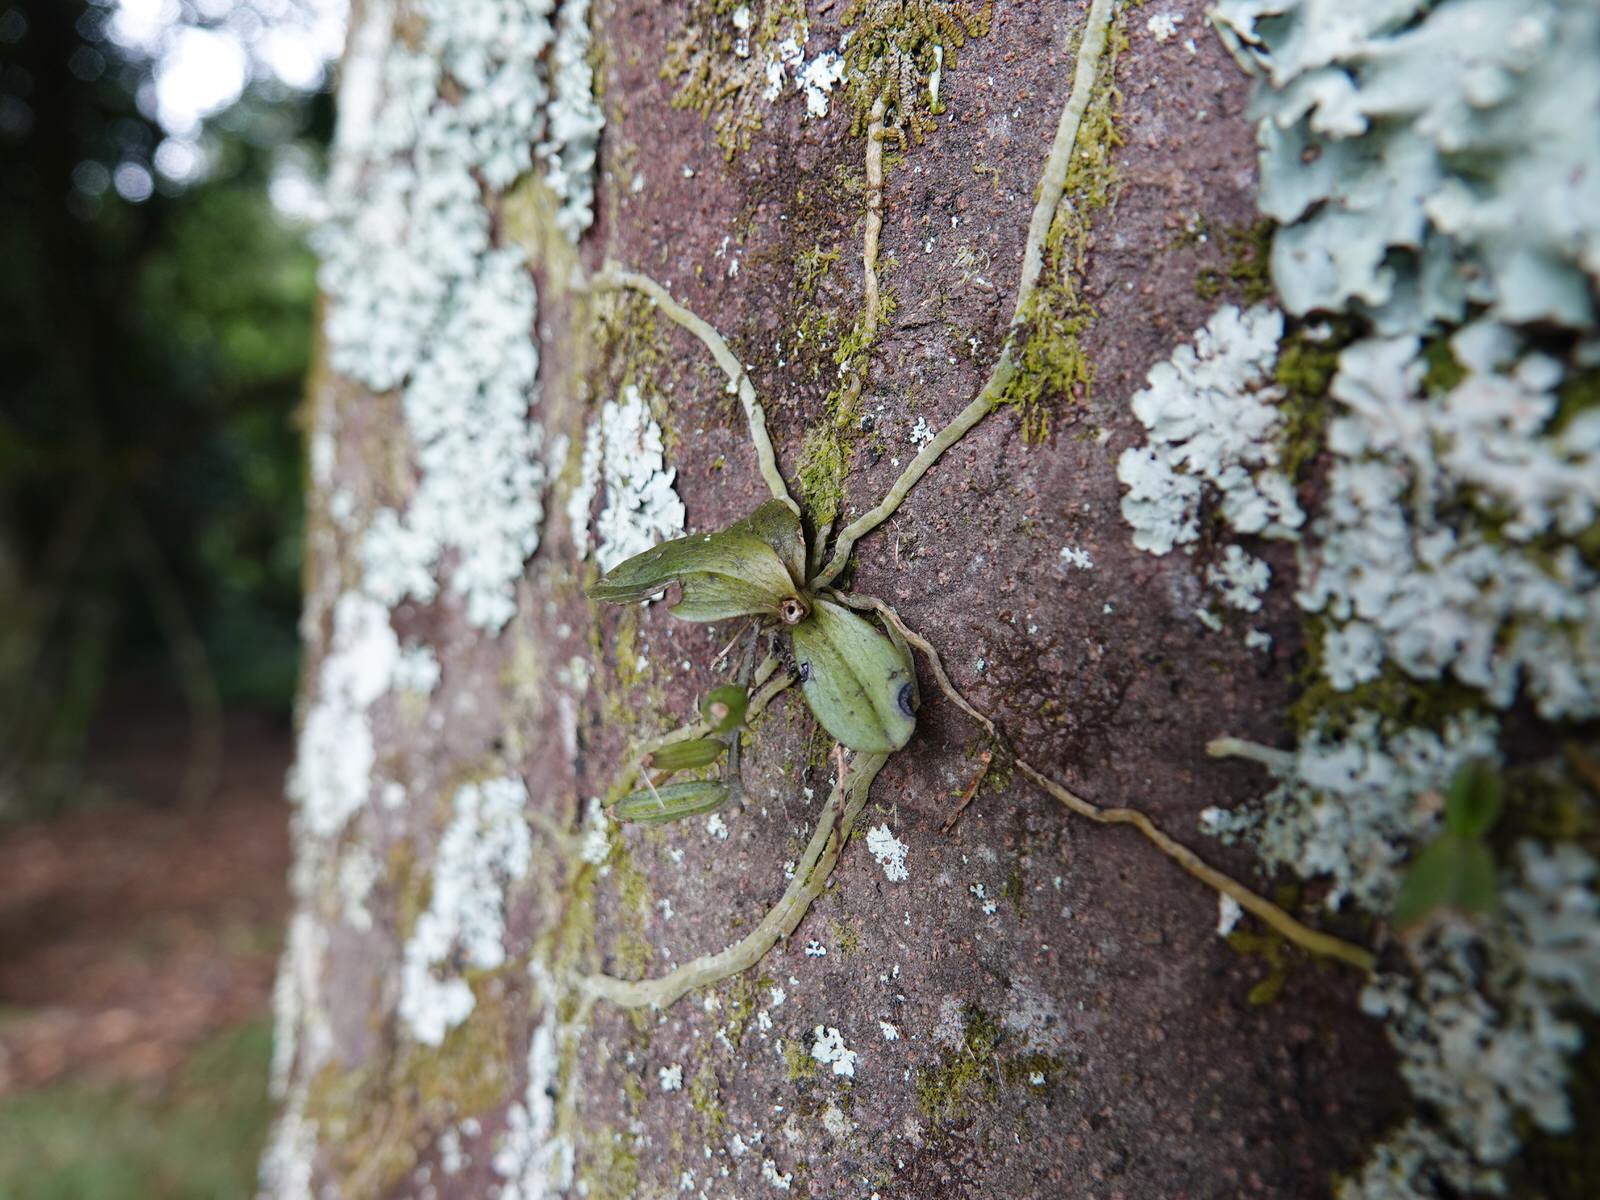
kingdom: Plantae
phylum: Tracheophyta
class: Liliopsida
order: Asparagales
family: Orchidaceae
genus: Drymoanthus
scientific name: Drymoanthus adversus
